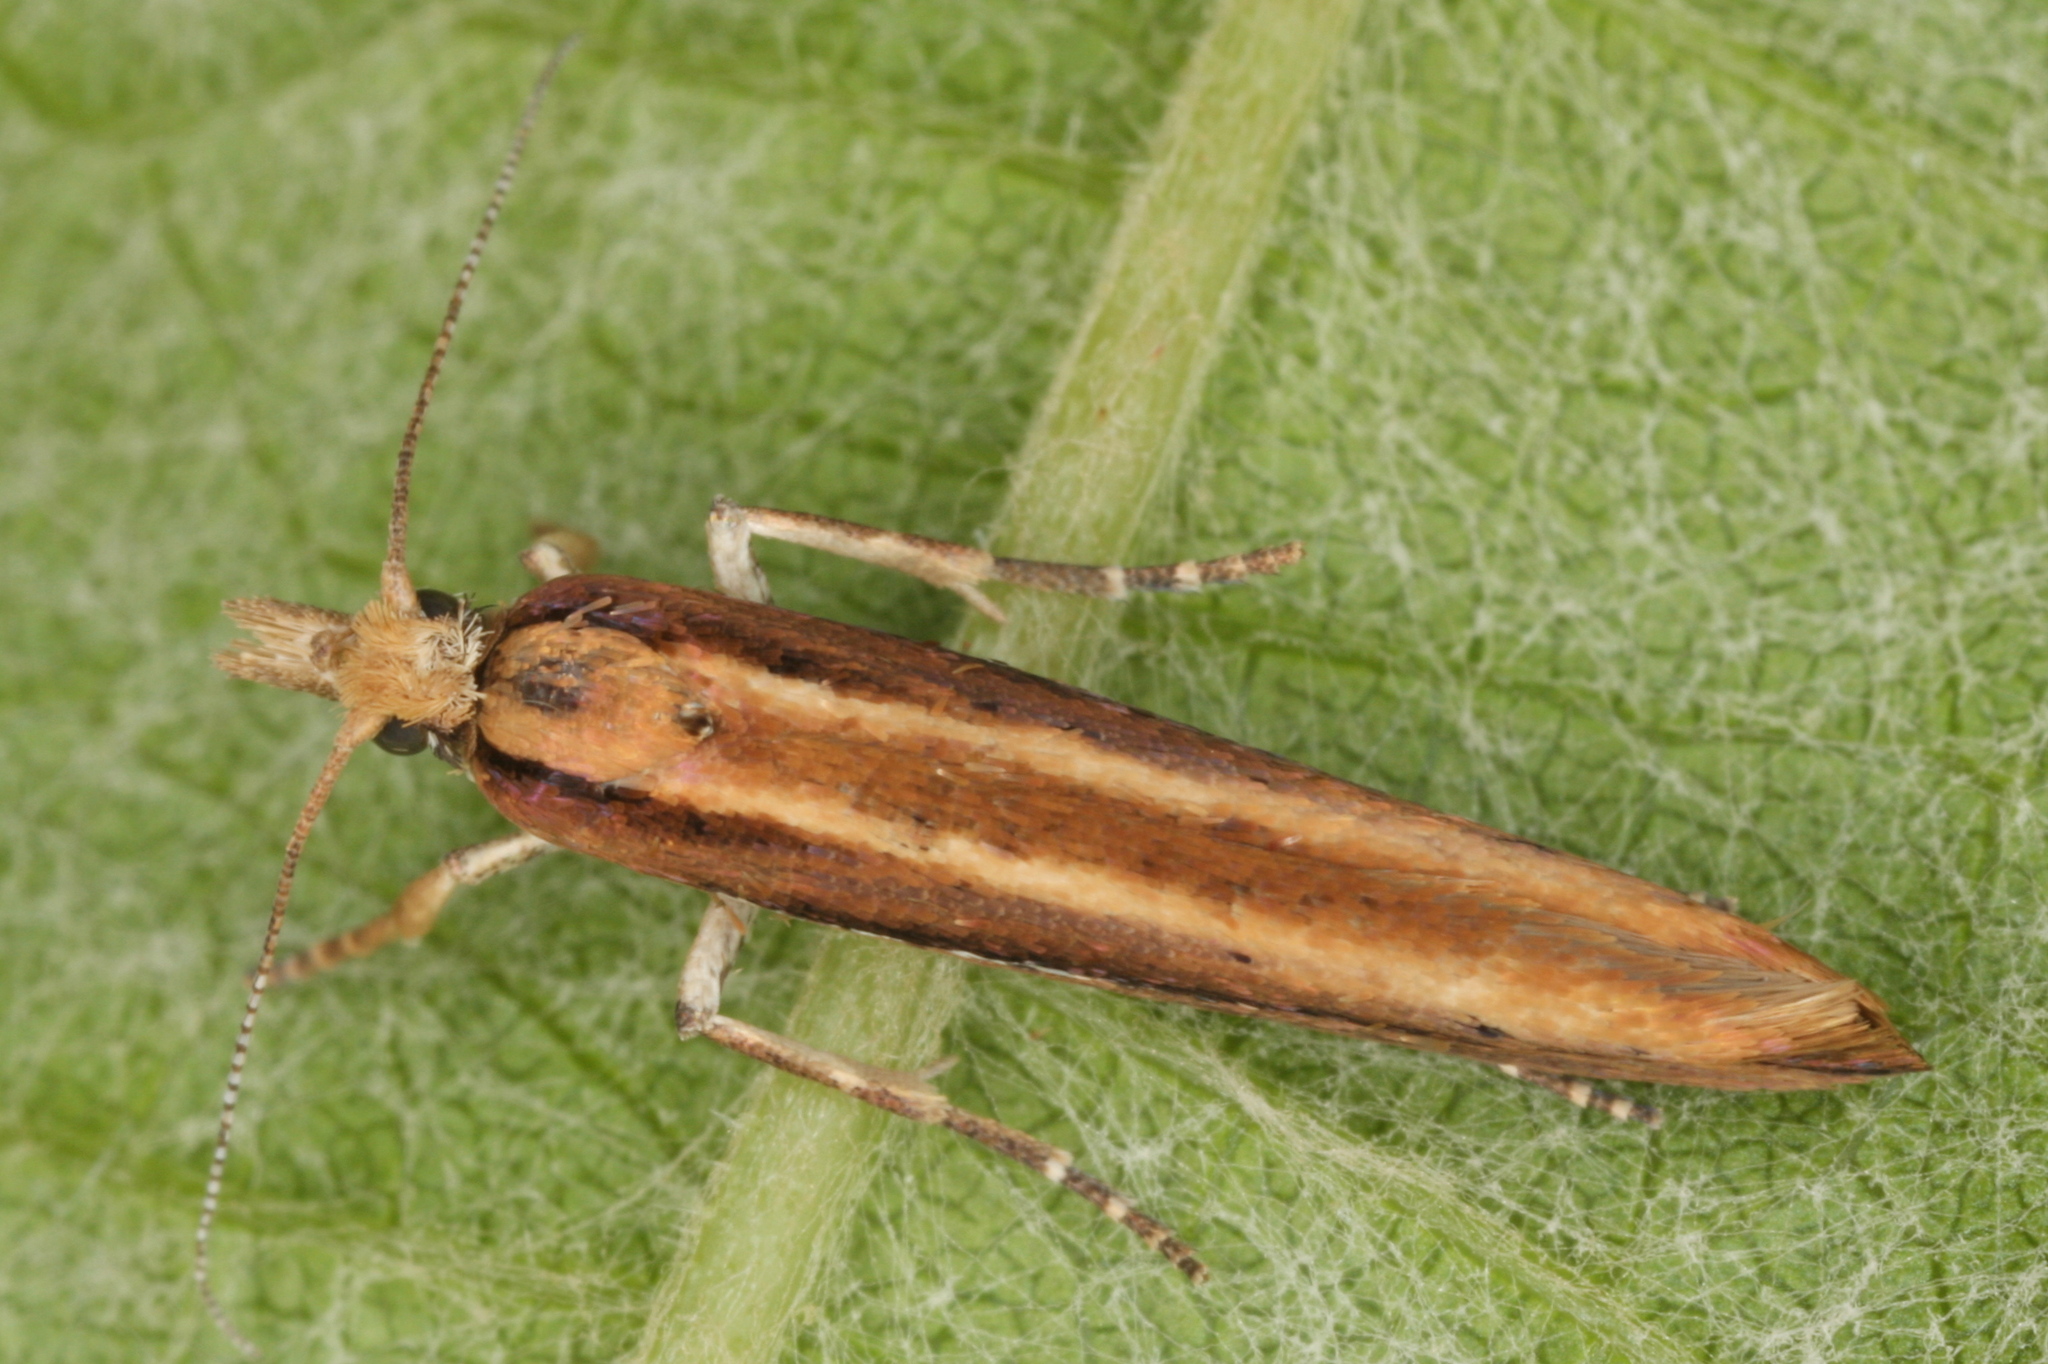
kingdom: Animalia
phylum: Arthropoda
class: Insecta
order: Lepidoptera
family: Plutellidae
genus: Ypsolophus
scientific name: Ypsolophus ustella
